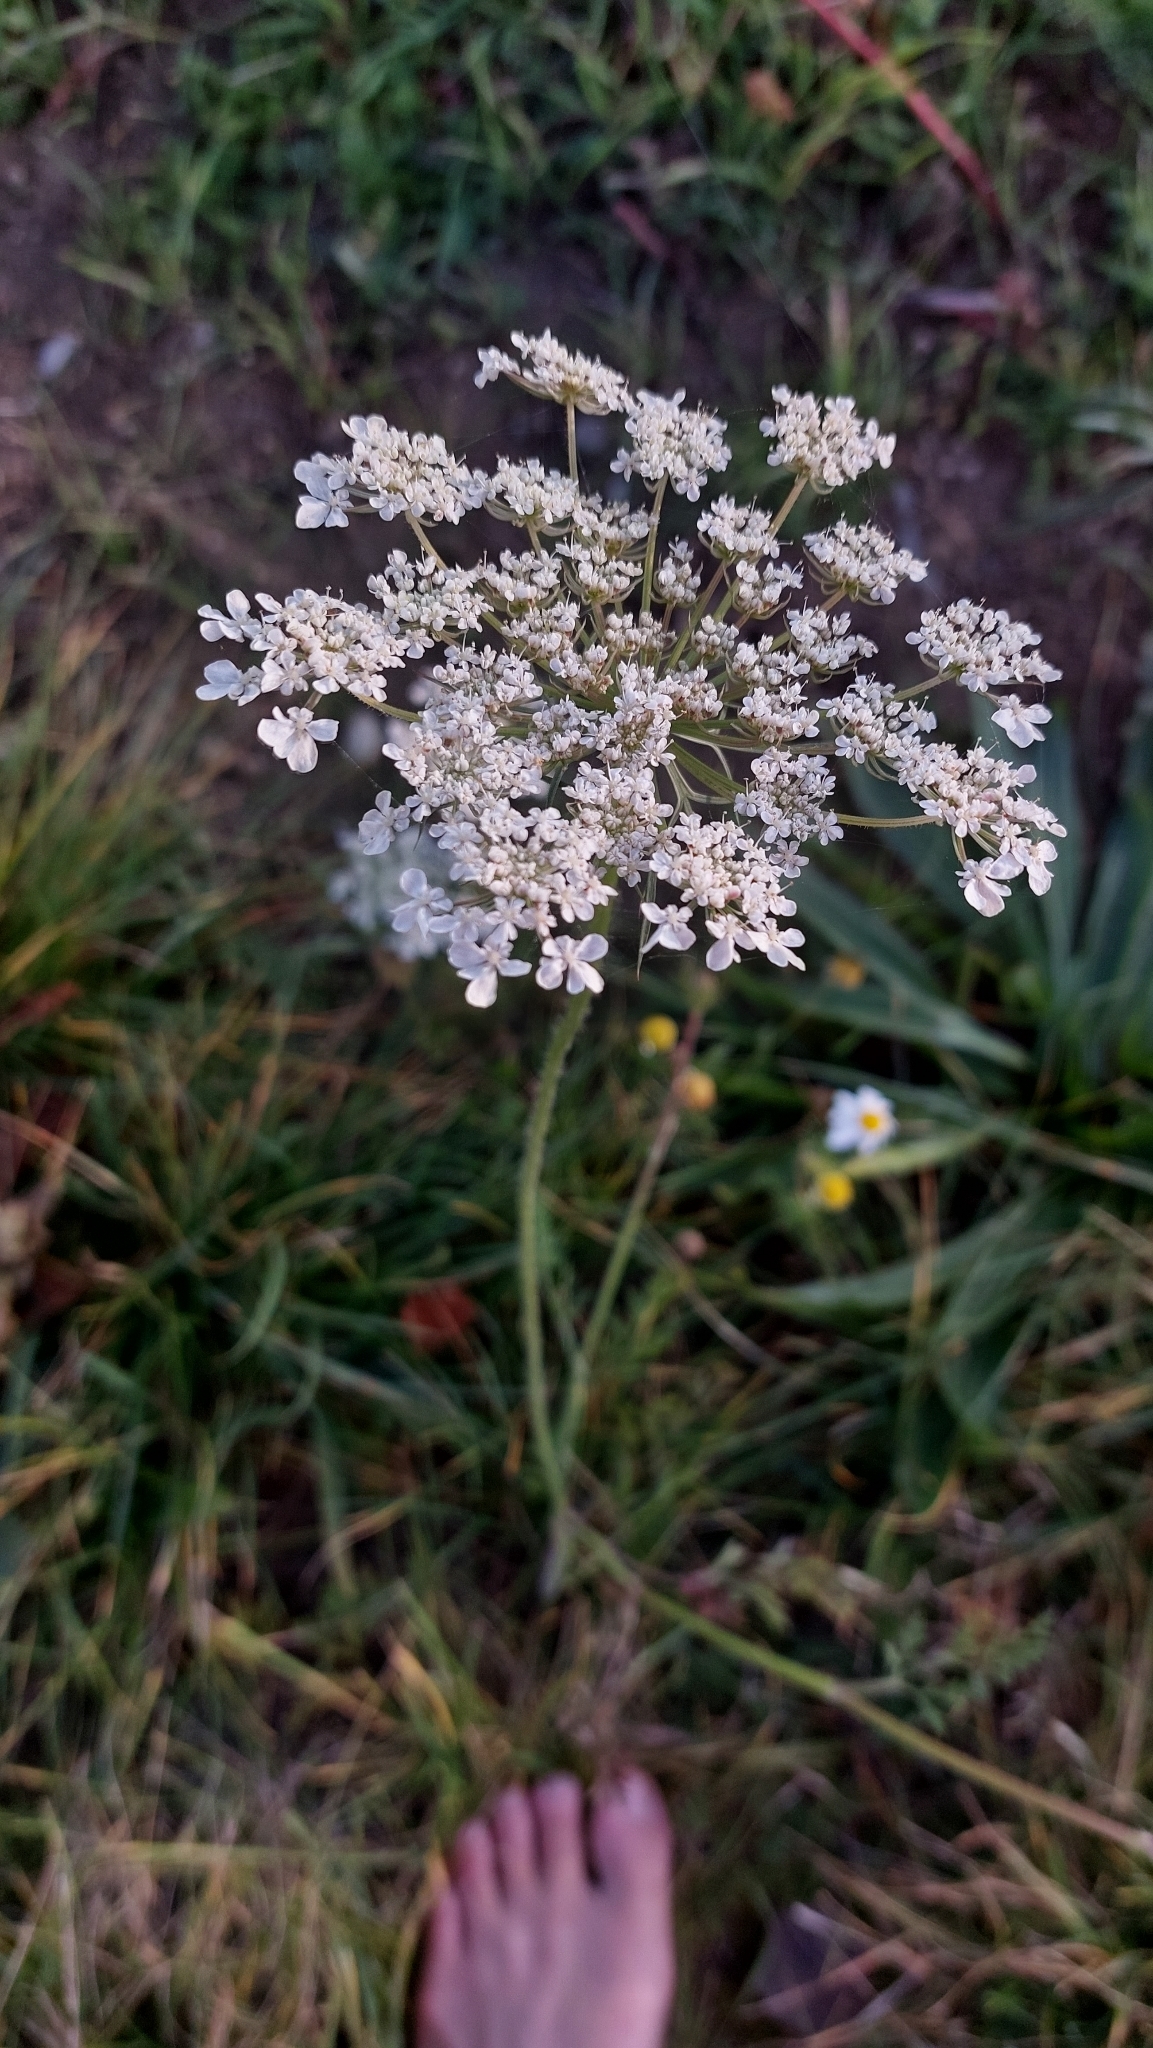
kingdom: Plantae
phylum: Tracheophyta
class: Magnoliopsida
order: Apiales
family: Apiaceae
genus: Daucus
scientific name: Daucus carota
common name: Wild carrot
